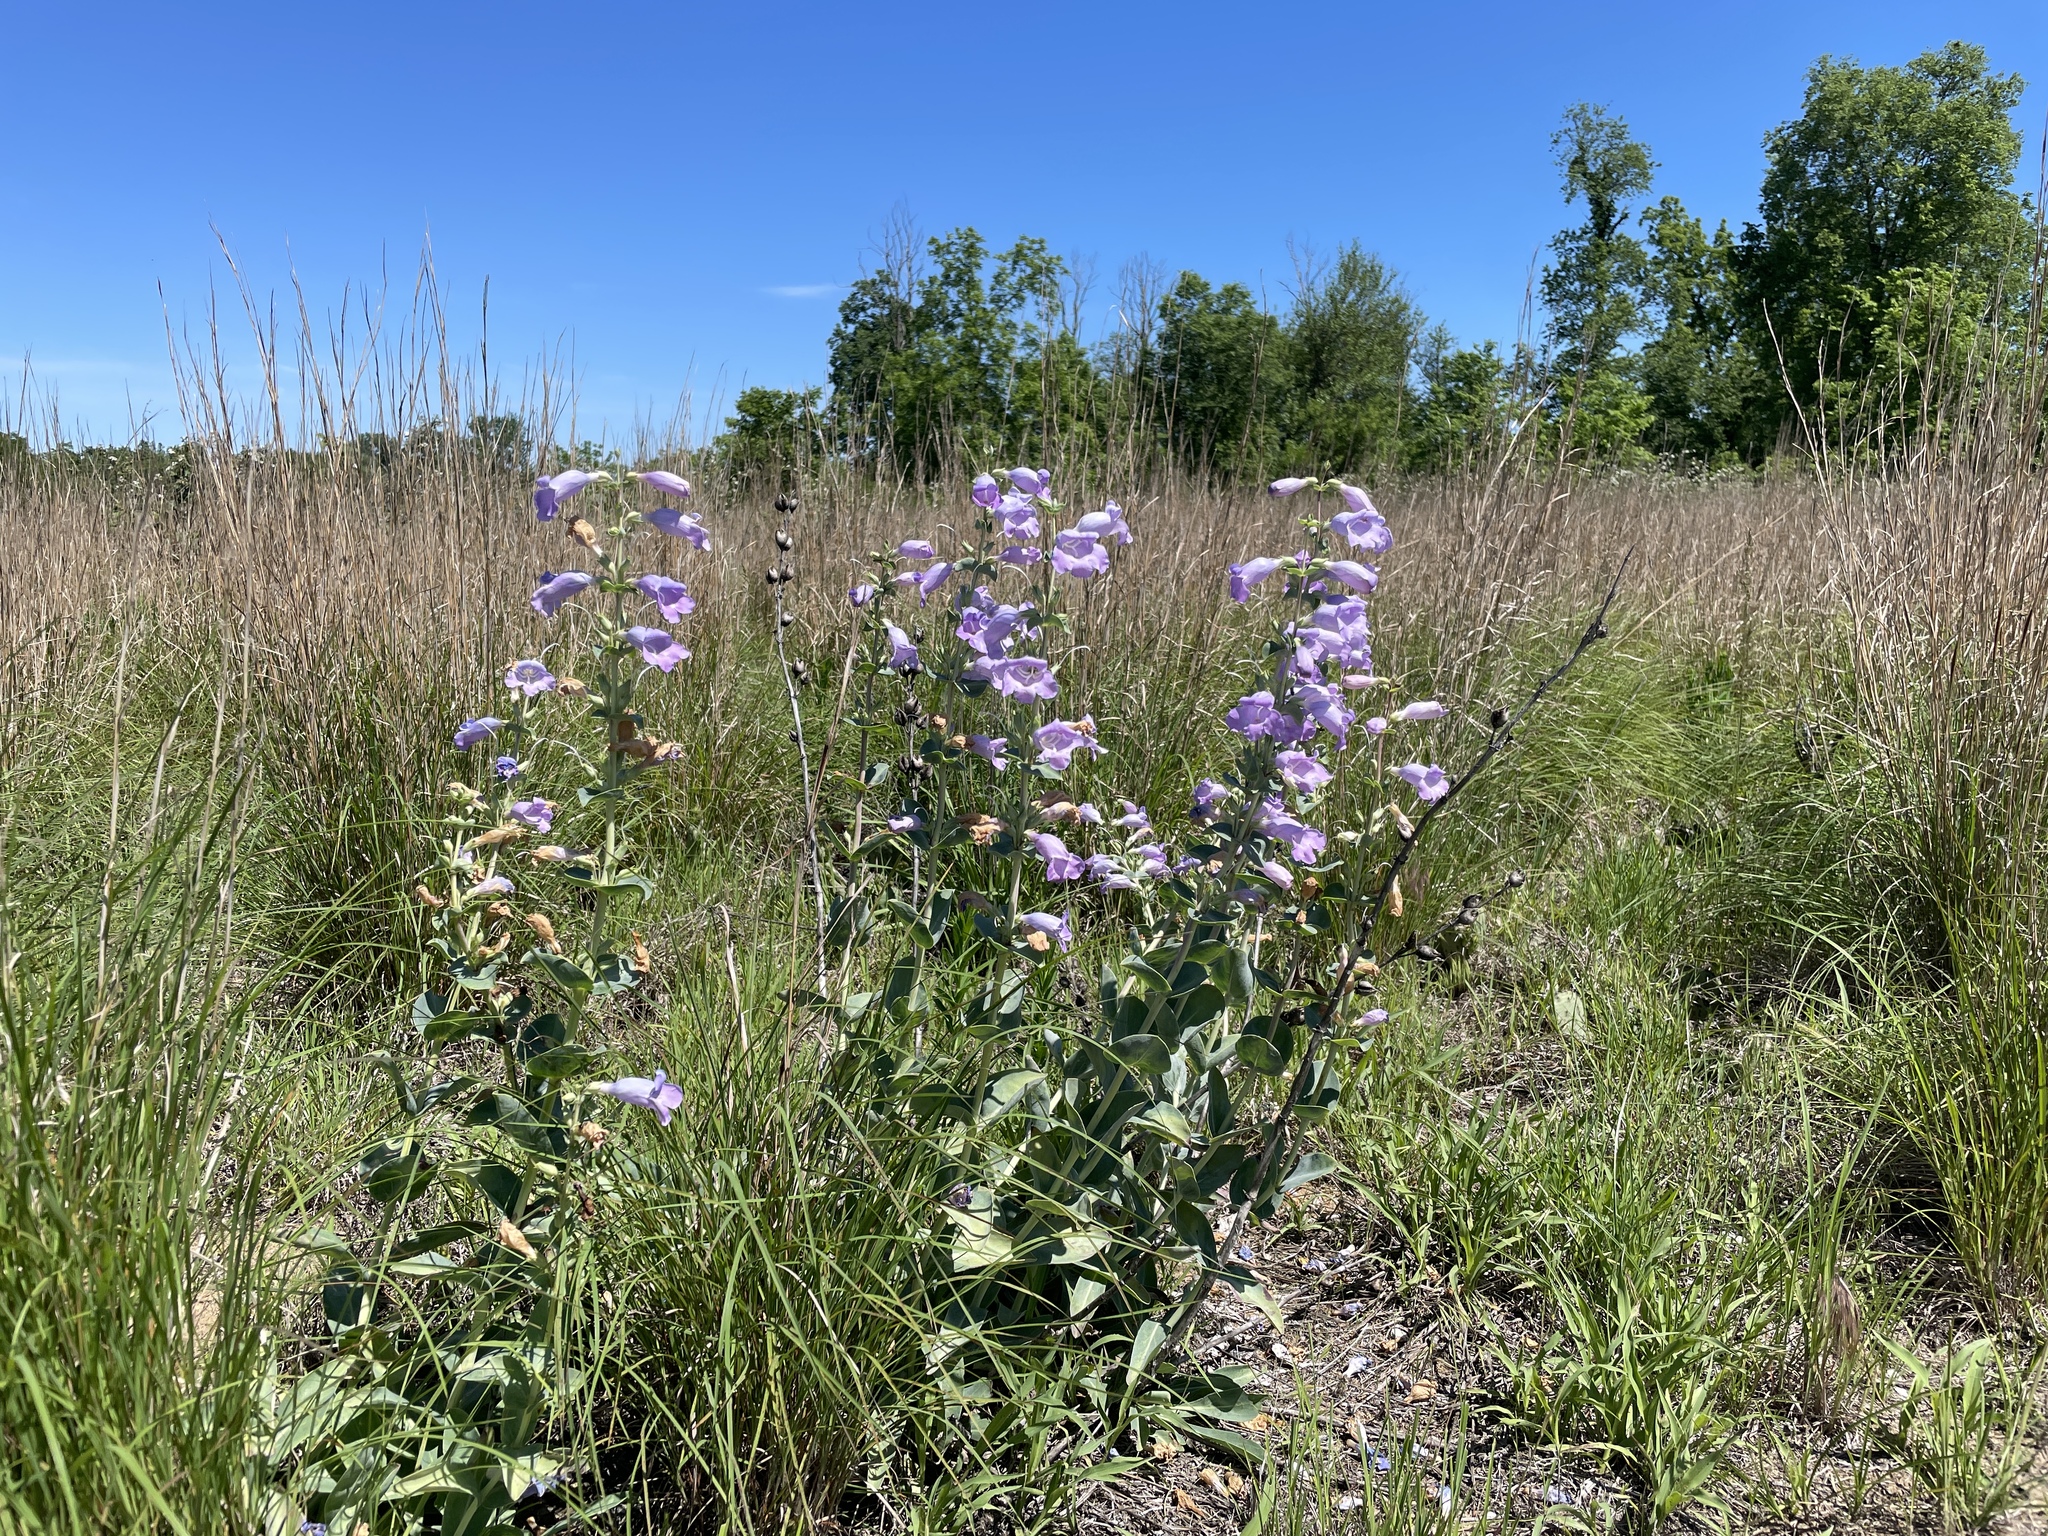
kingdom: Plantae
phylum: Tracheophyta
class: Magnoliopsida
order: Lamiales
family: Plantaginaceae
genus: Penstemon
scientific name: Penstemon
